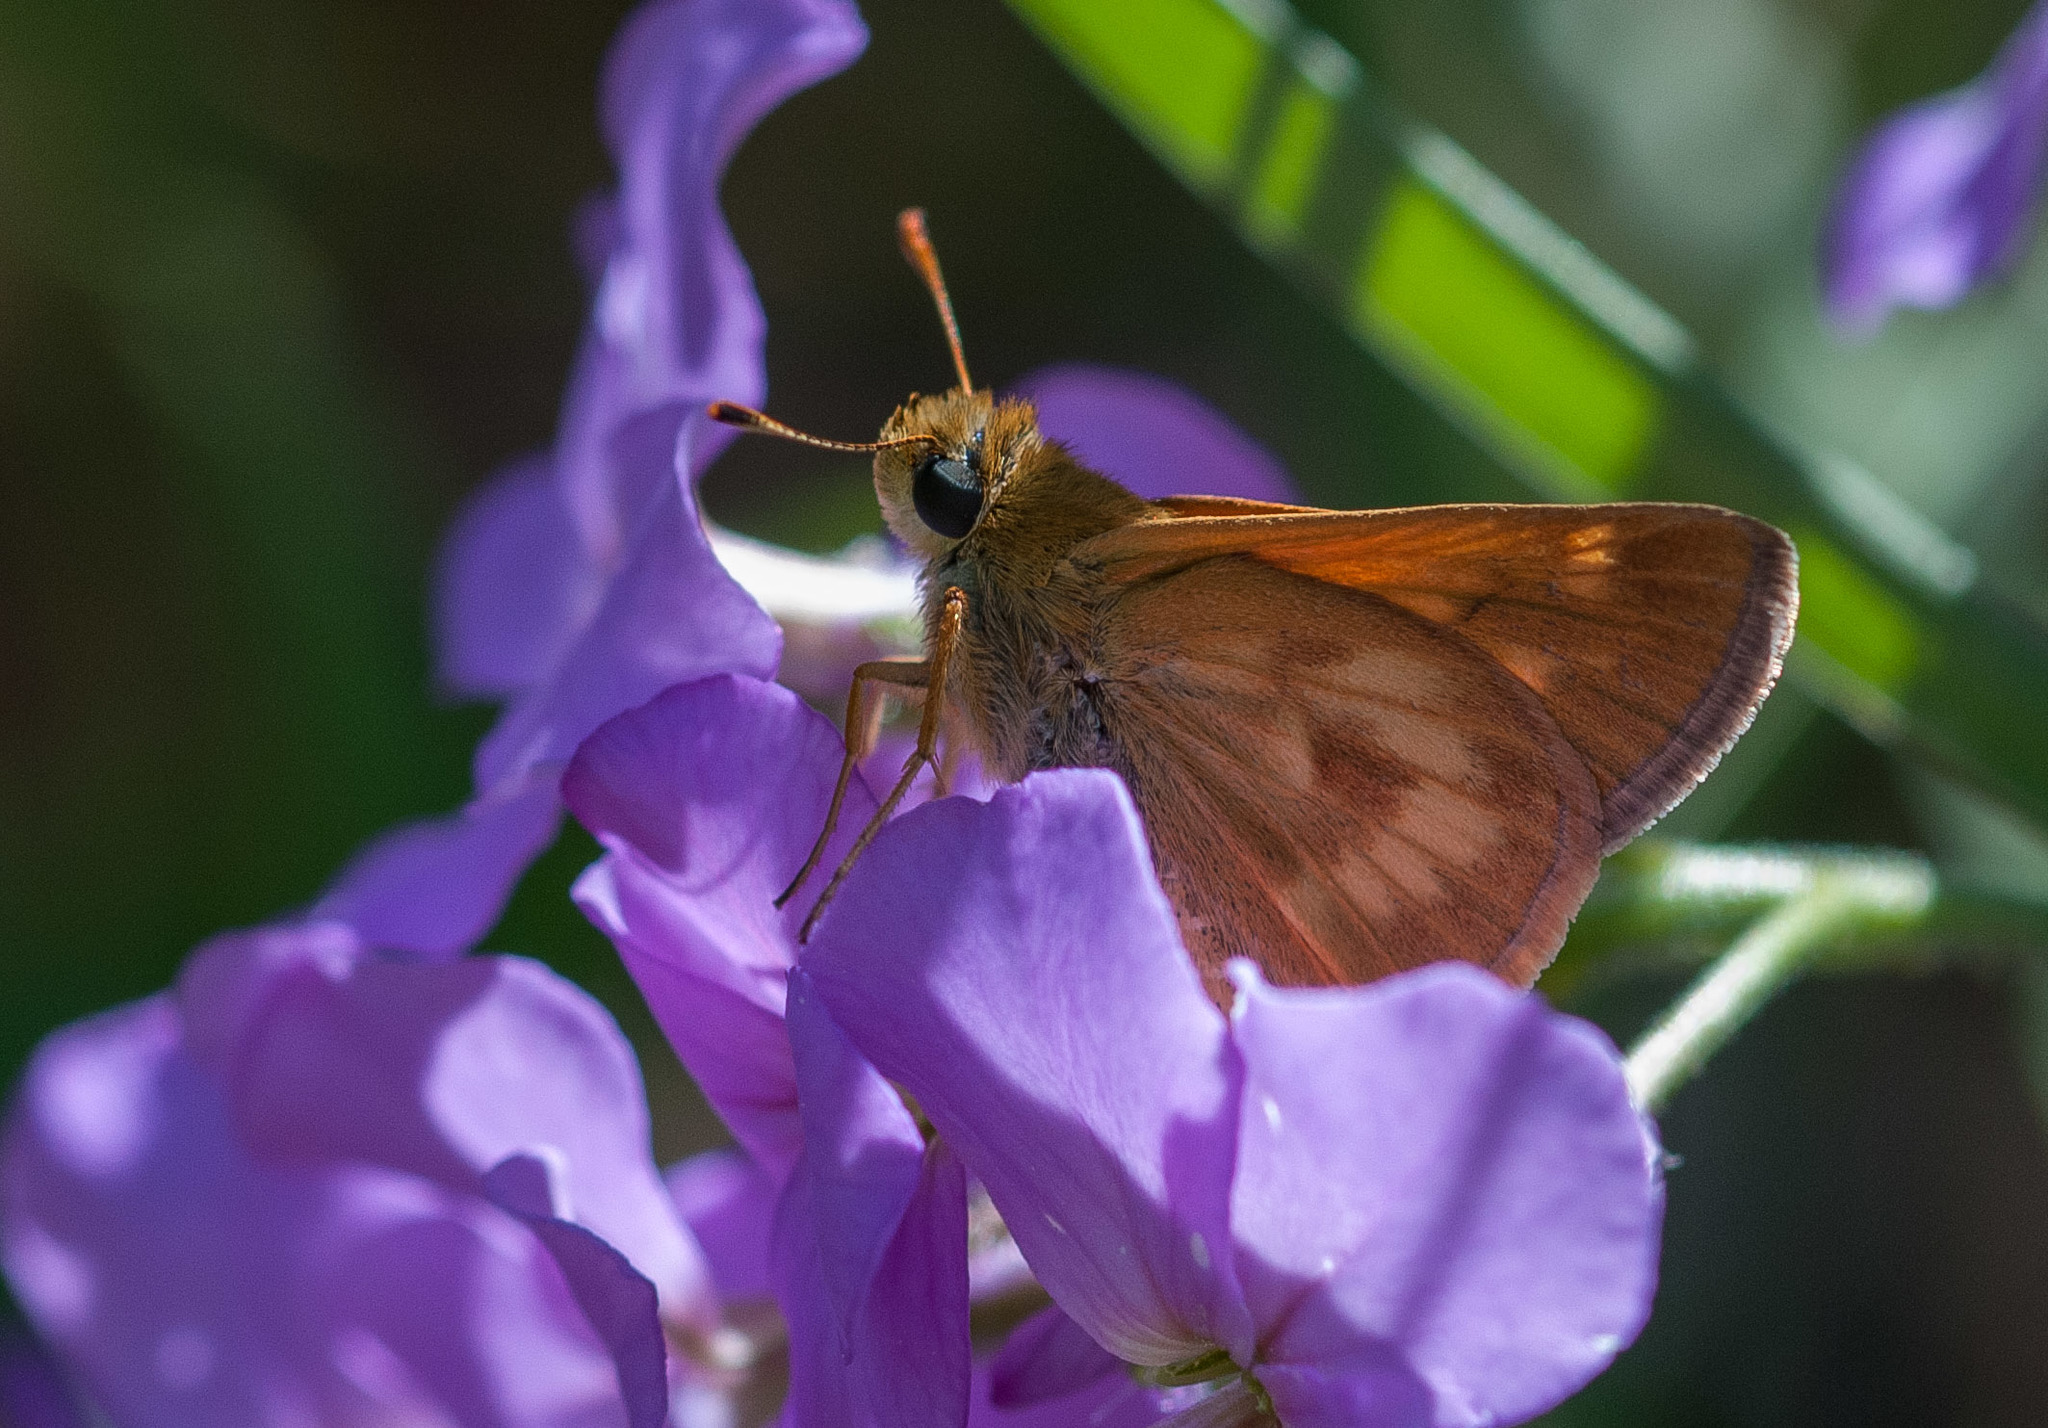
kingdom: Animalia
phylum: Arthropoda
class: Insecta
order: Lepidoptera
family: Hesperiidae
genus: Polites
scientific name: Polites mystic
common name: Long dash
